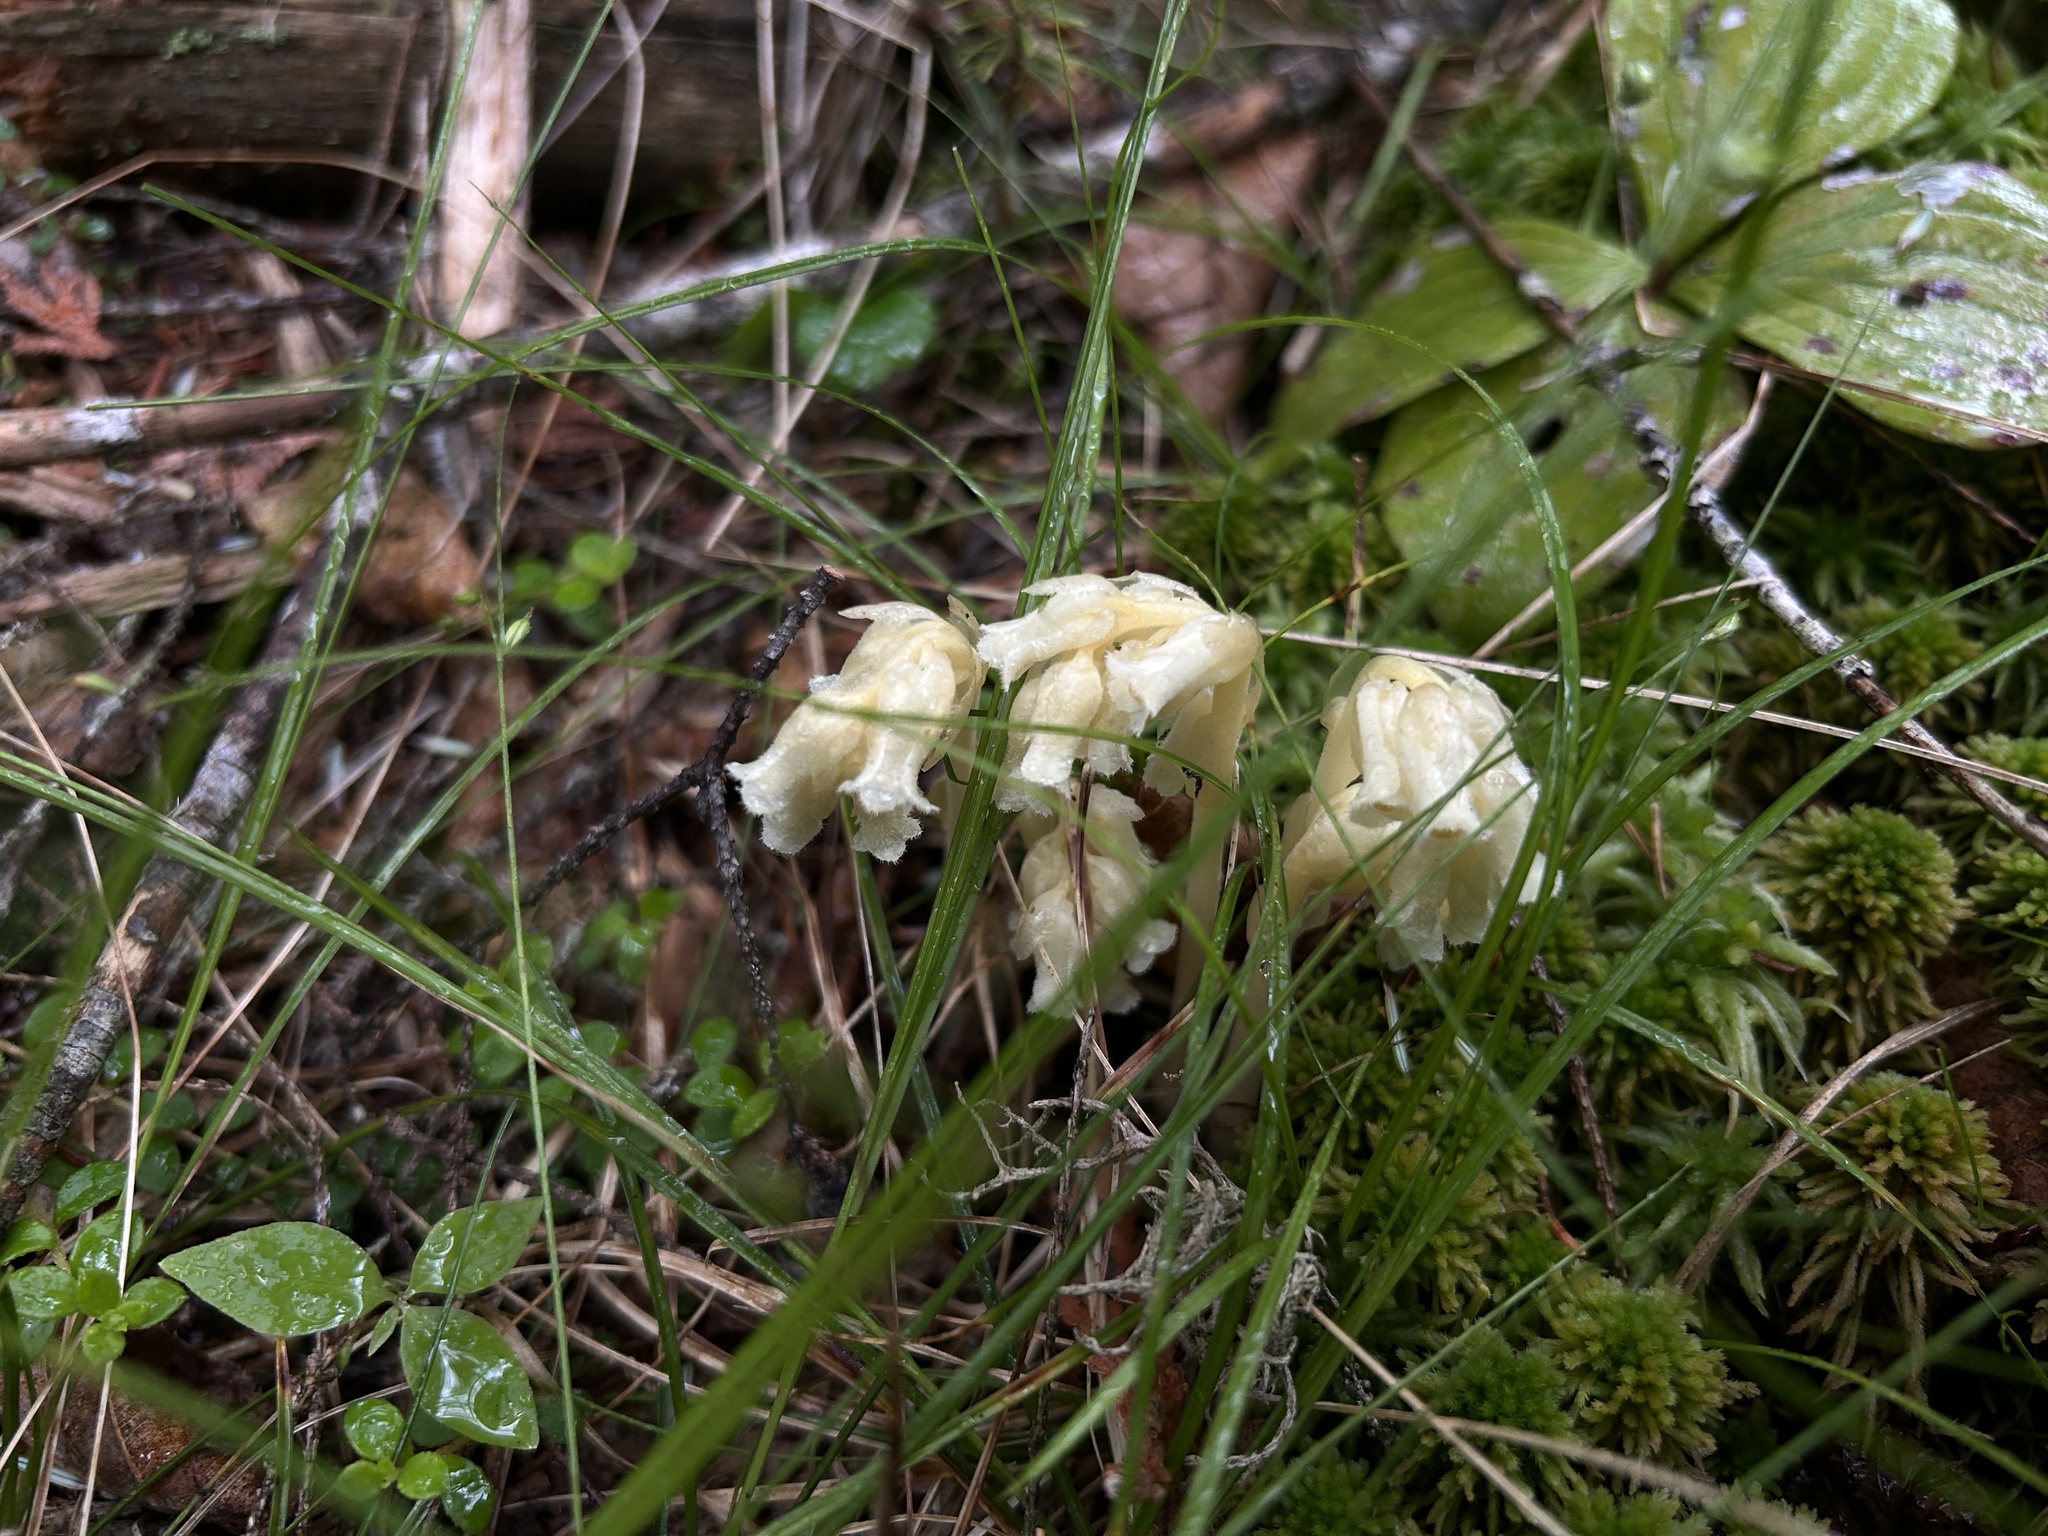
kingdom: Plantae
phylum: Tracheophyta
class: Magnoliopsida
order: Ericales
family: Ericaceae
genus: Hypopitys
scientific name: Hypopitys monotropa
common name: Yellow bird's-nest
